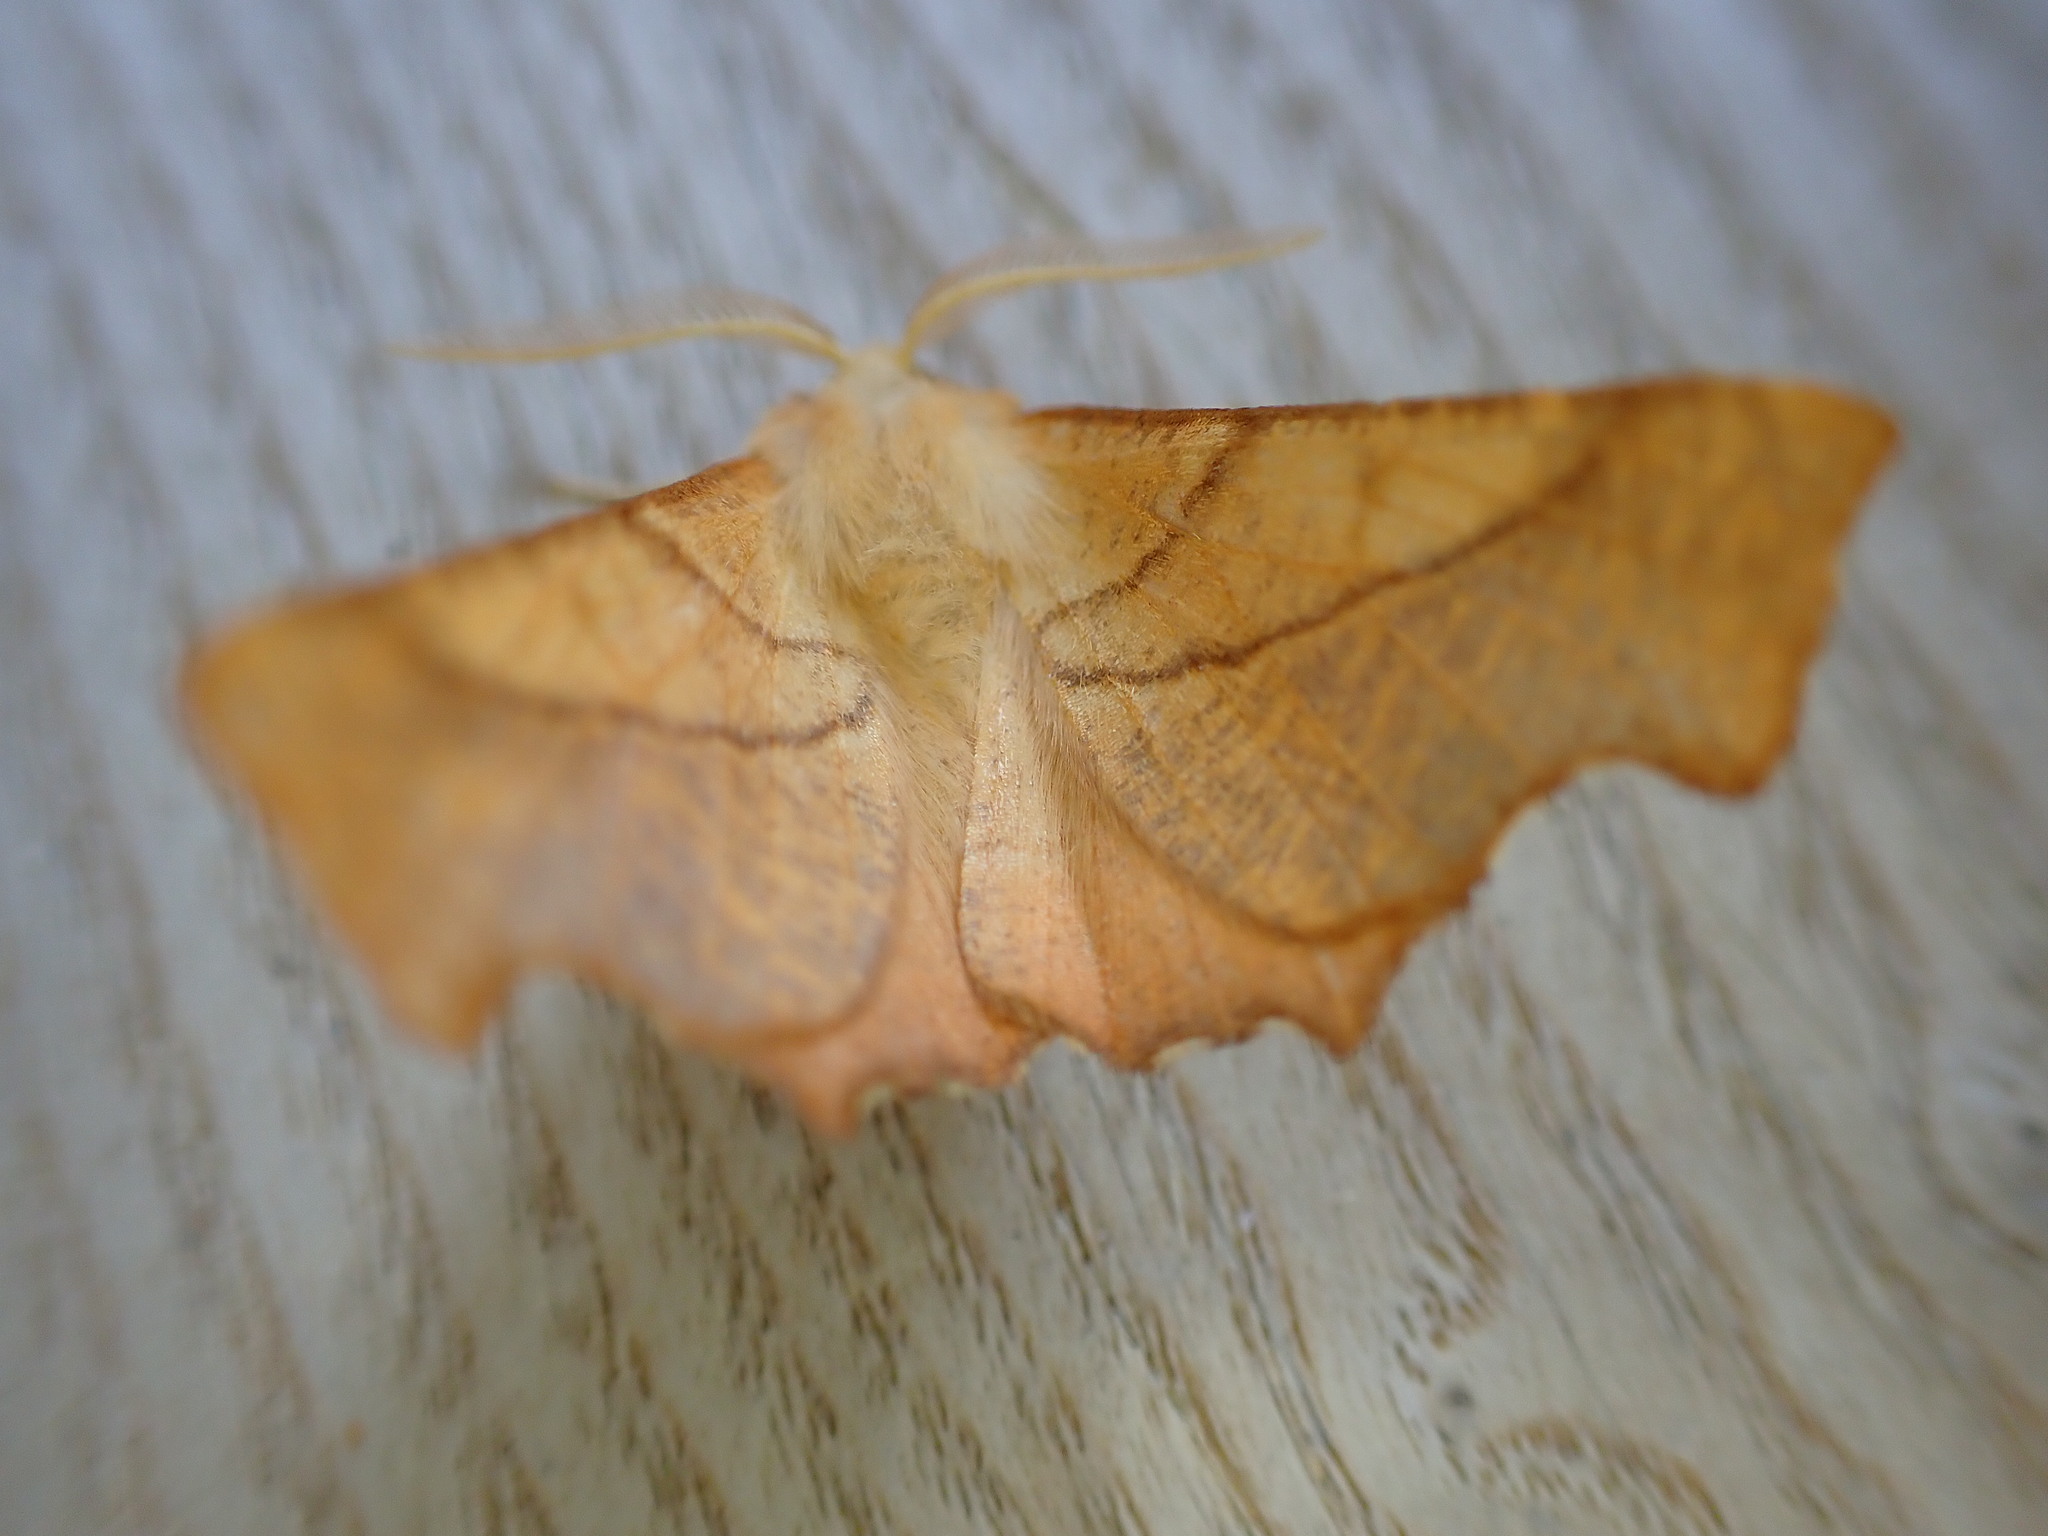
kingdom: Animalia
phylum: Arthropoda
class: Insecta
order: Lepidoptera
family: Geometridae
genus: Ennomos
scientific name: Ennomos fuscantaria
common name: Dusky thorn
